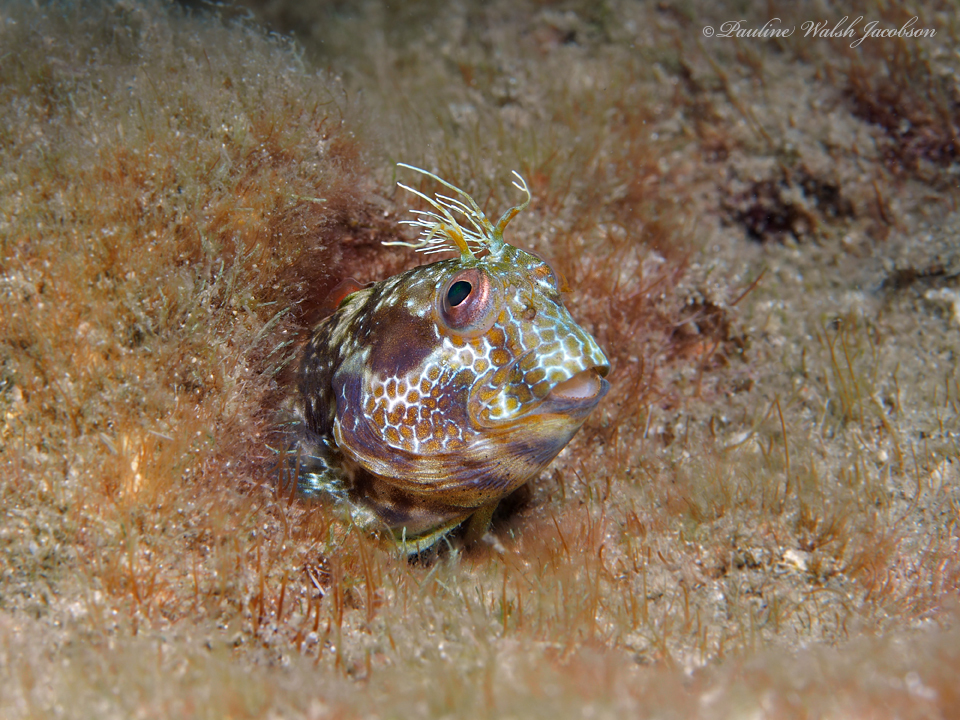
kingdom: Animalia
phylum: Chordata
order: Perciformes
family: Blenniidae
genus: Parablennius
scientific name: Parablennius marmoreus
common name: Seaweed blenny
